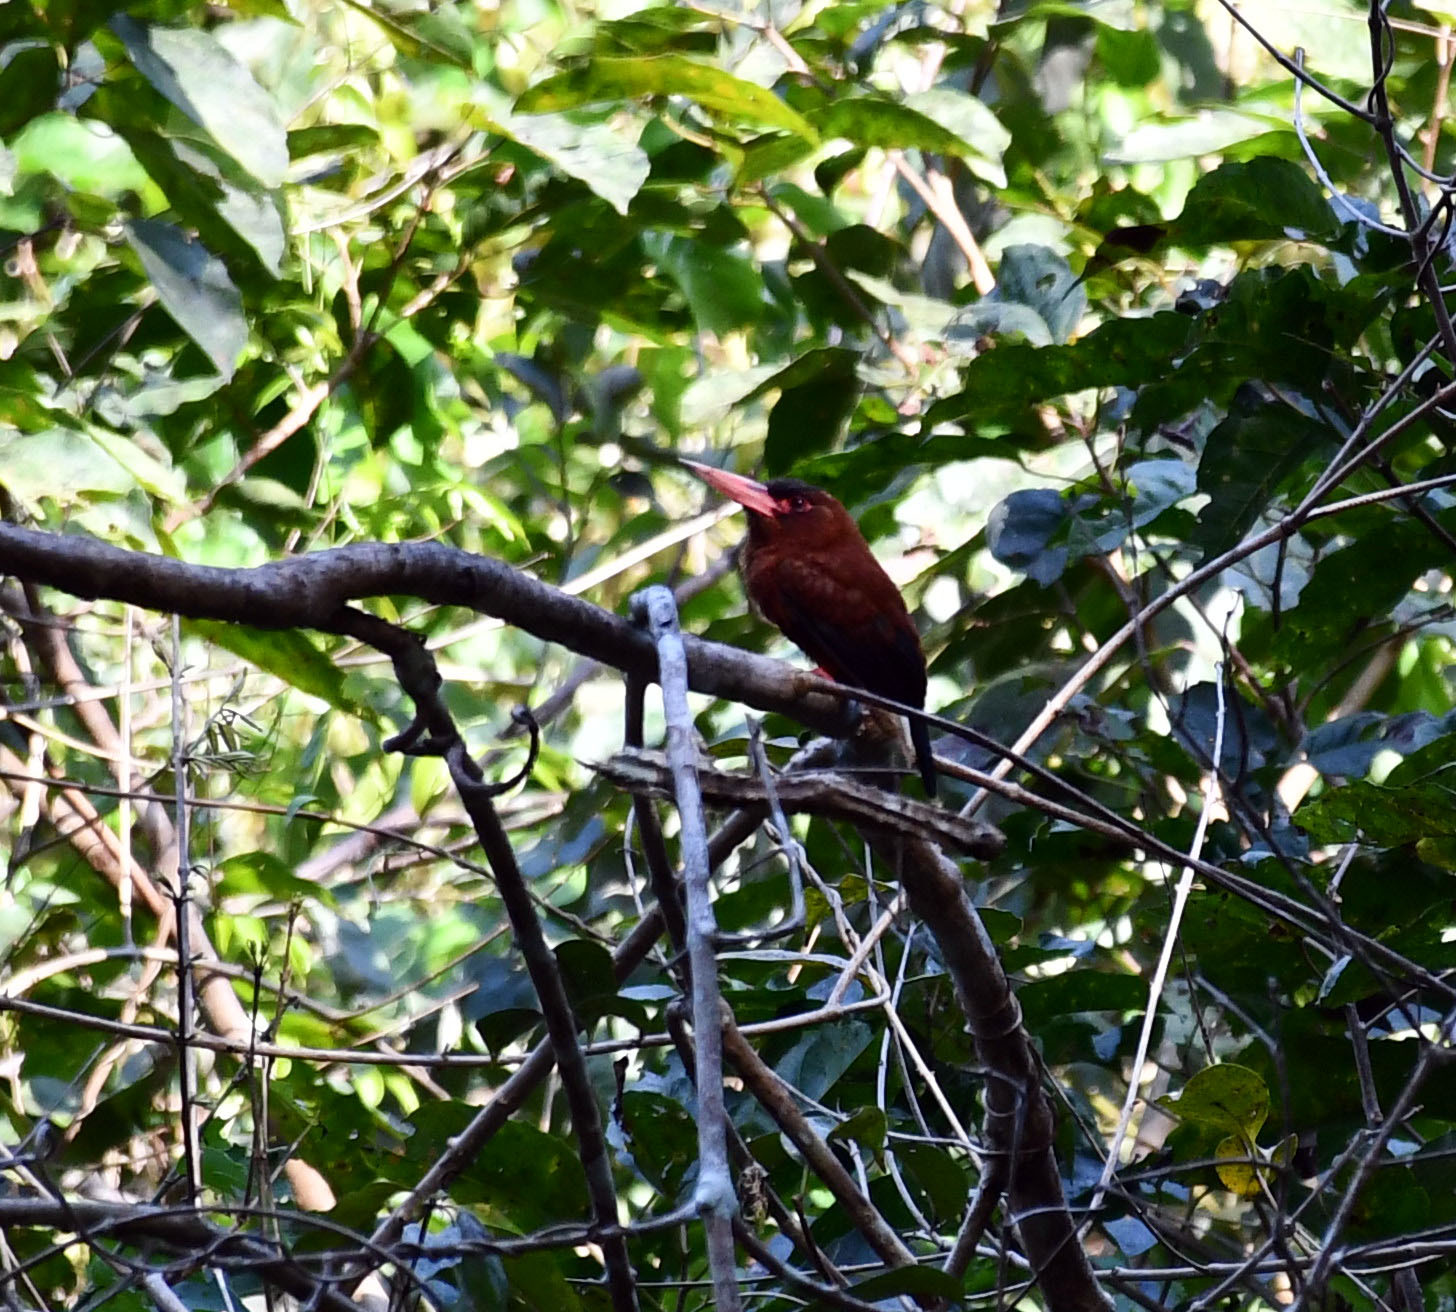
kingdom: Animalia
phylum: Chordata
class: Aves
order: Piciformes
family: Galbulidae
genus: Galbalcyrhynchus
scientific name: Galbalcyrhynchus purusianus
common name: Purus jacamar
